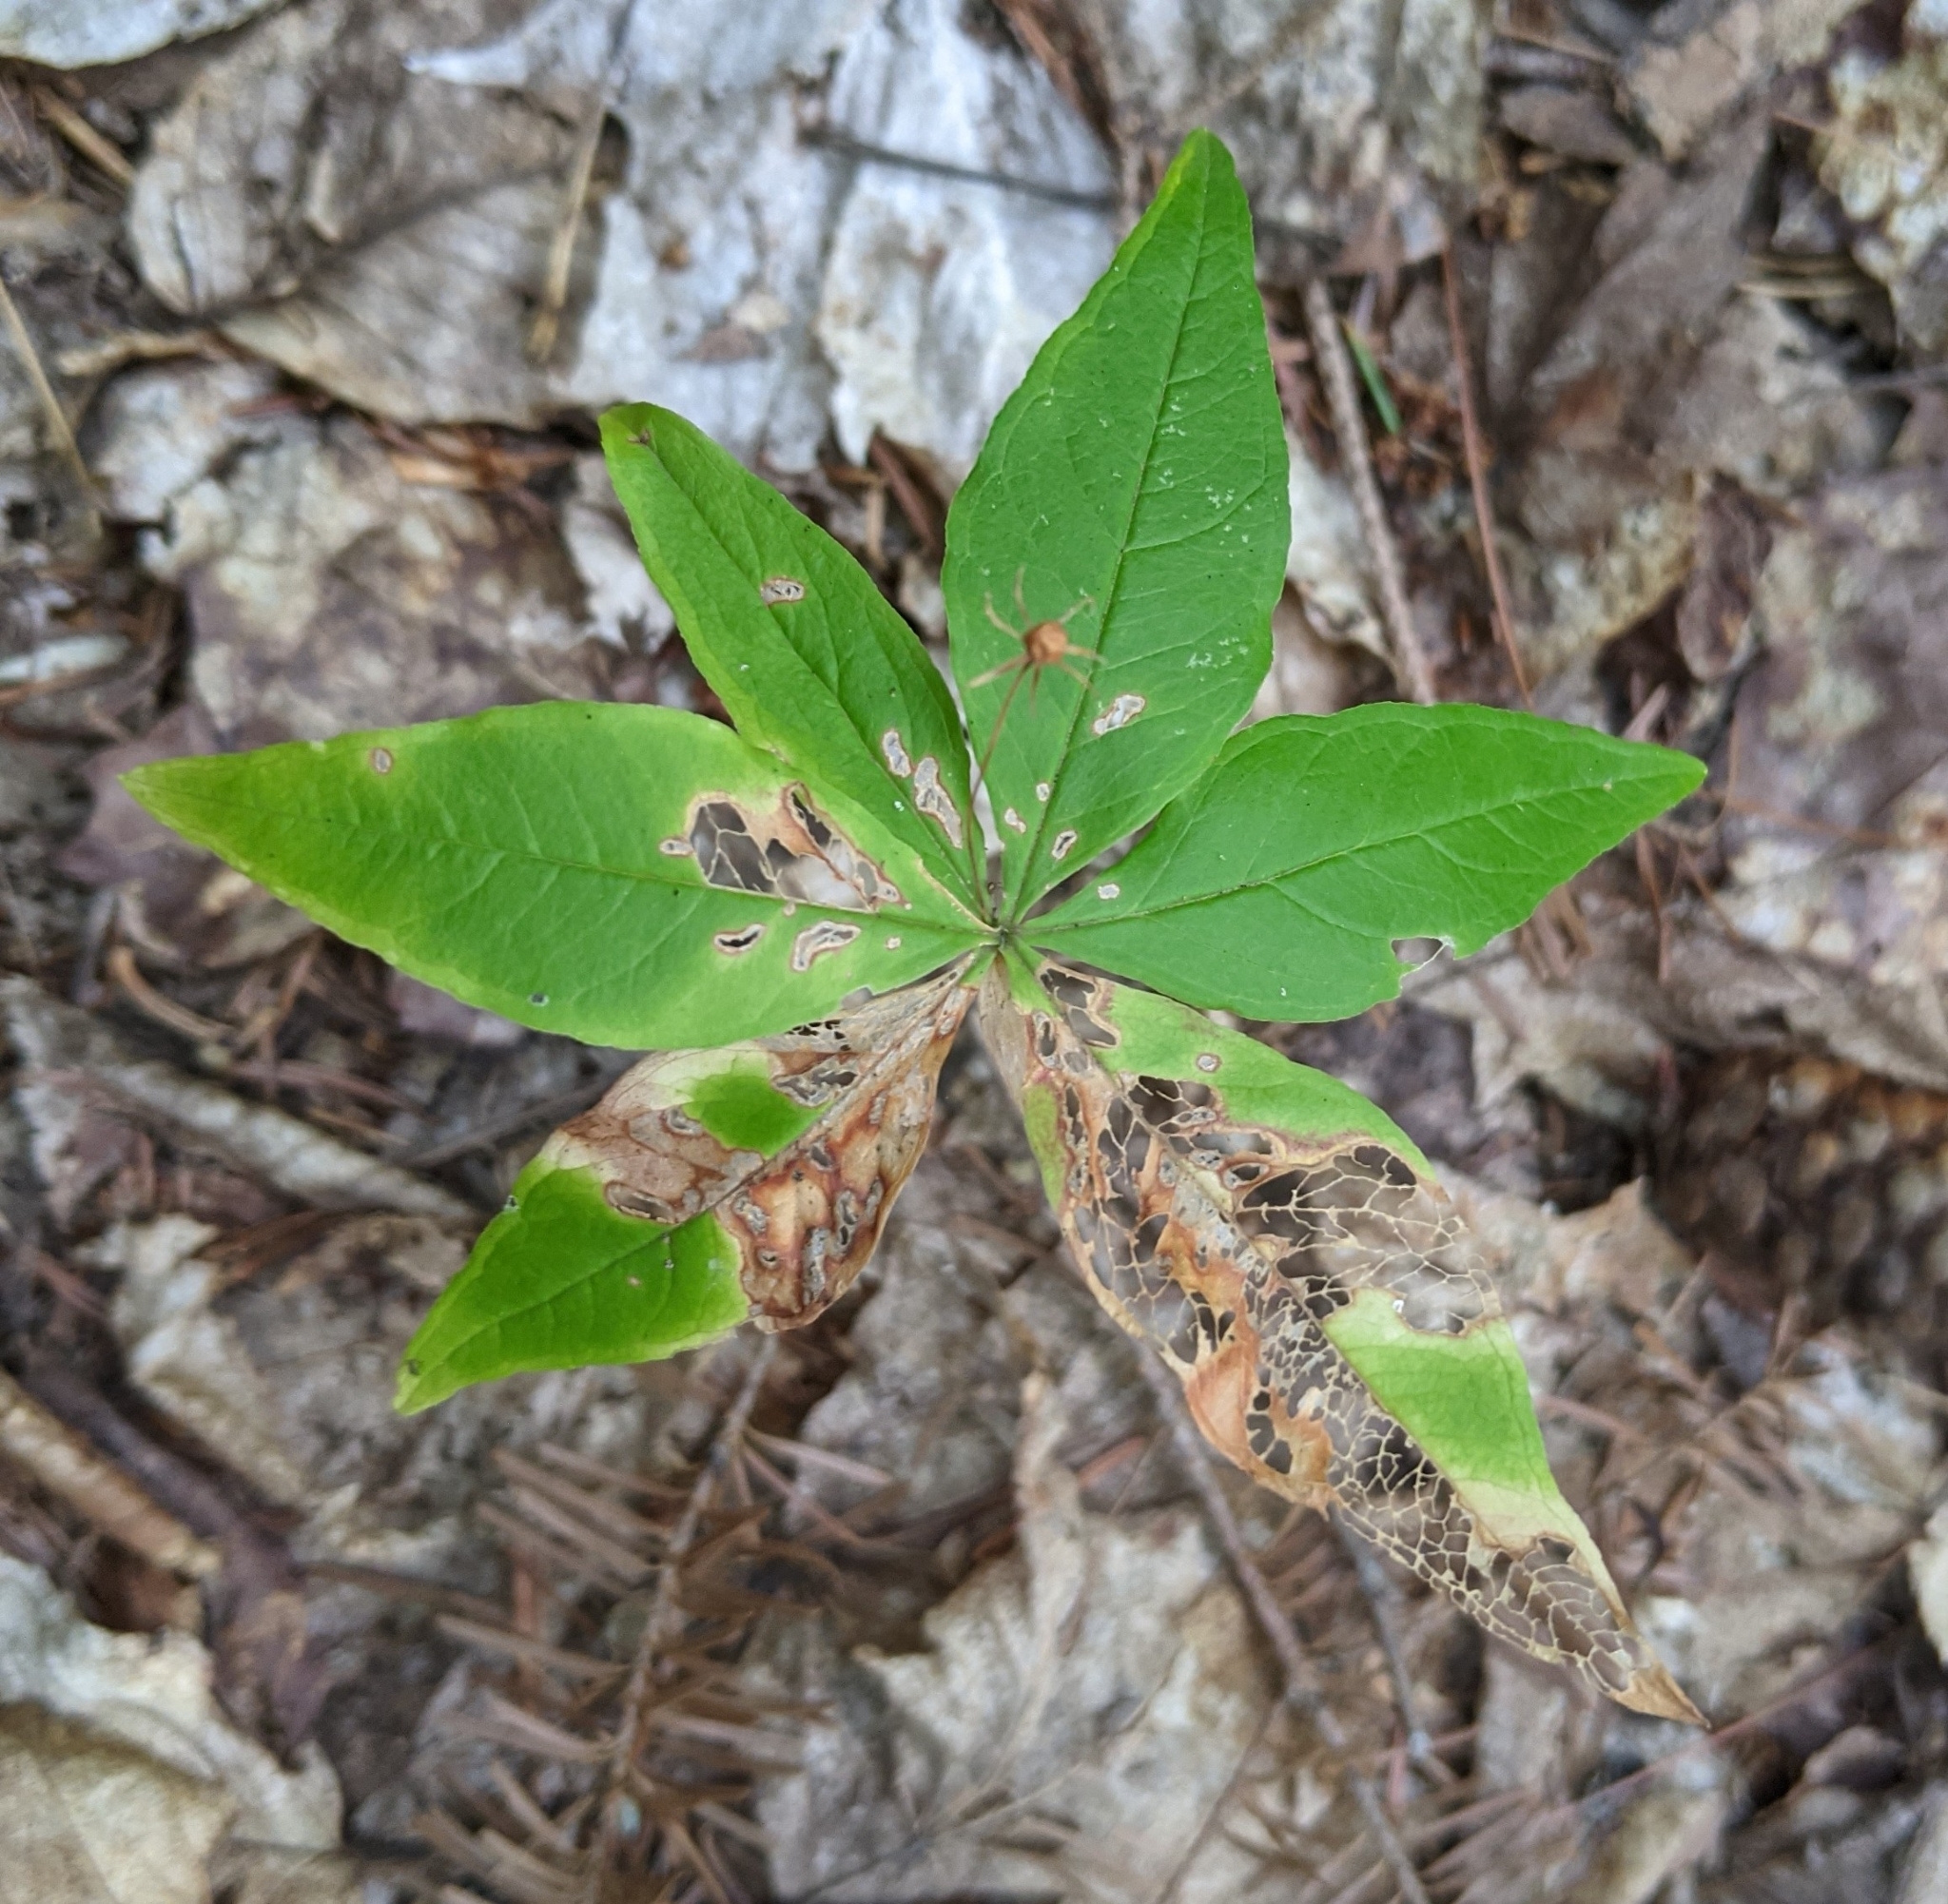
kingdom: Plantae
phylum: Tracheophyta
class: Magnoliopsida
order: Ericales
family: Primulaceae
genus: Lysimachia
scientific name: Lysimachia borealis
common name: American starflower
